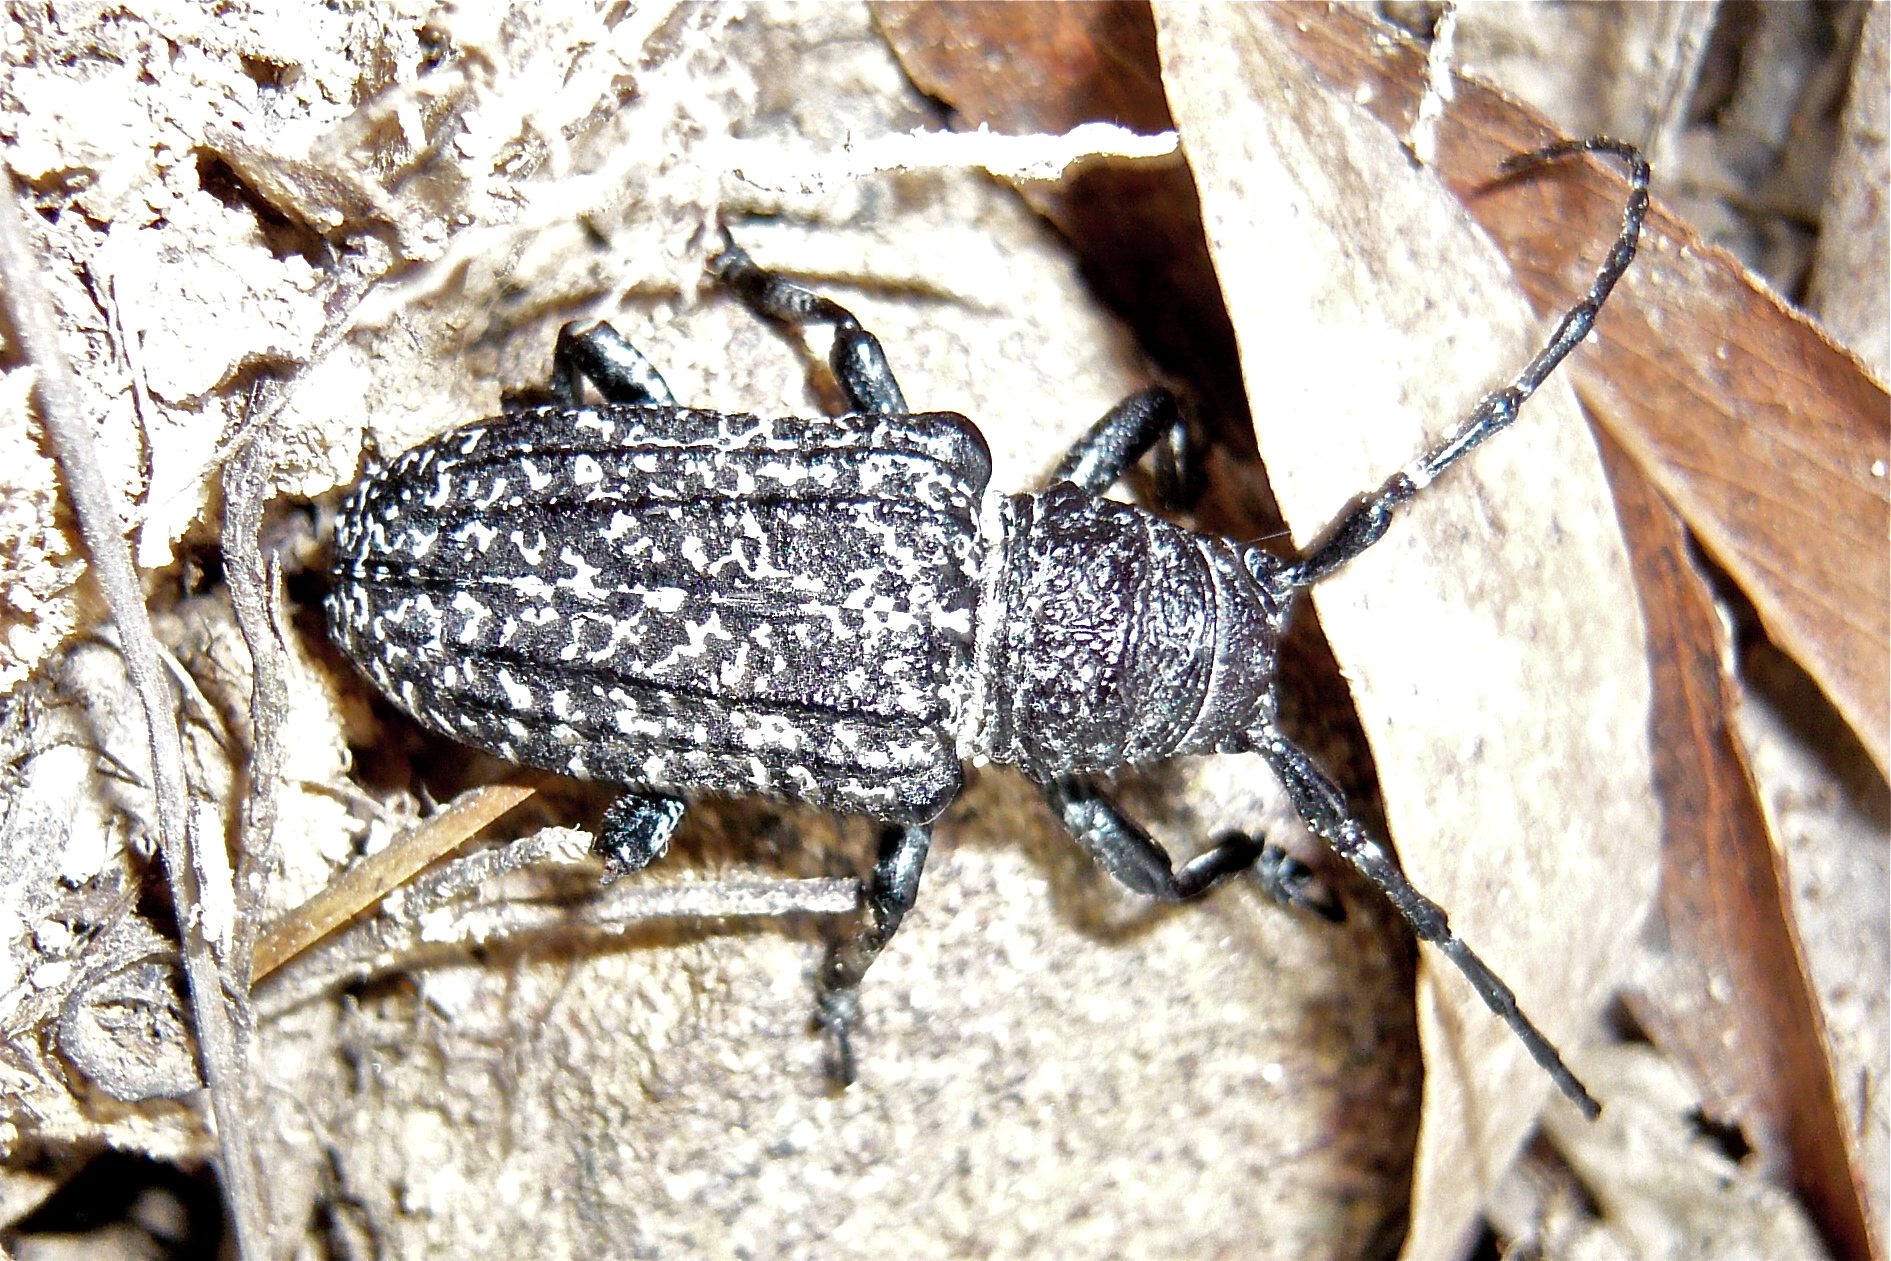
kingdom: Animalia
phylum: Arthropoda
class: Insecta
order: Coleoptera
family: Cerambycidae
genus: Rhytiphora
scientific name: Rhytiphora vermicularia
